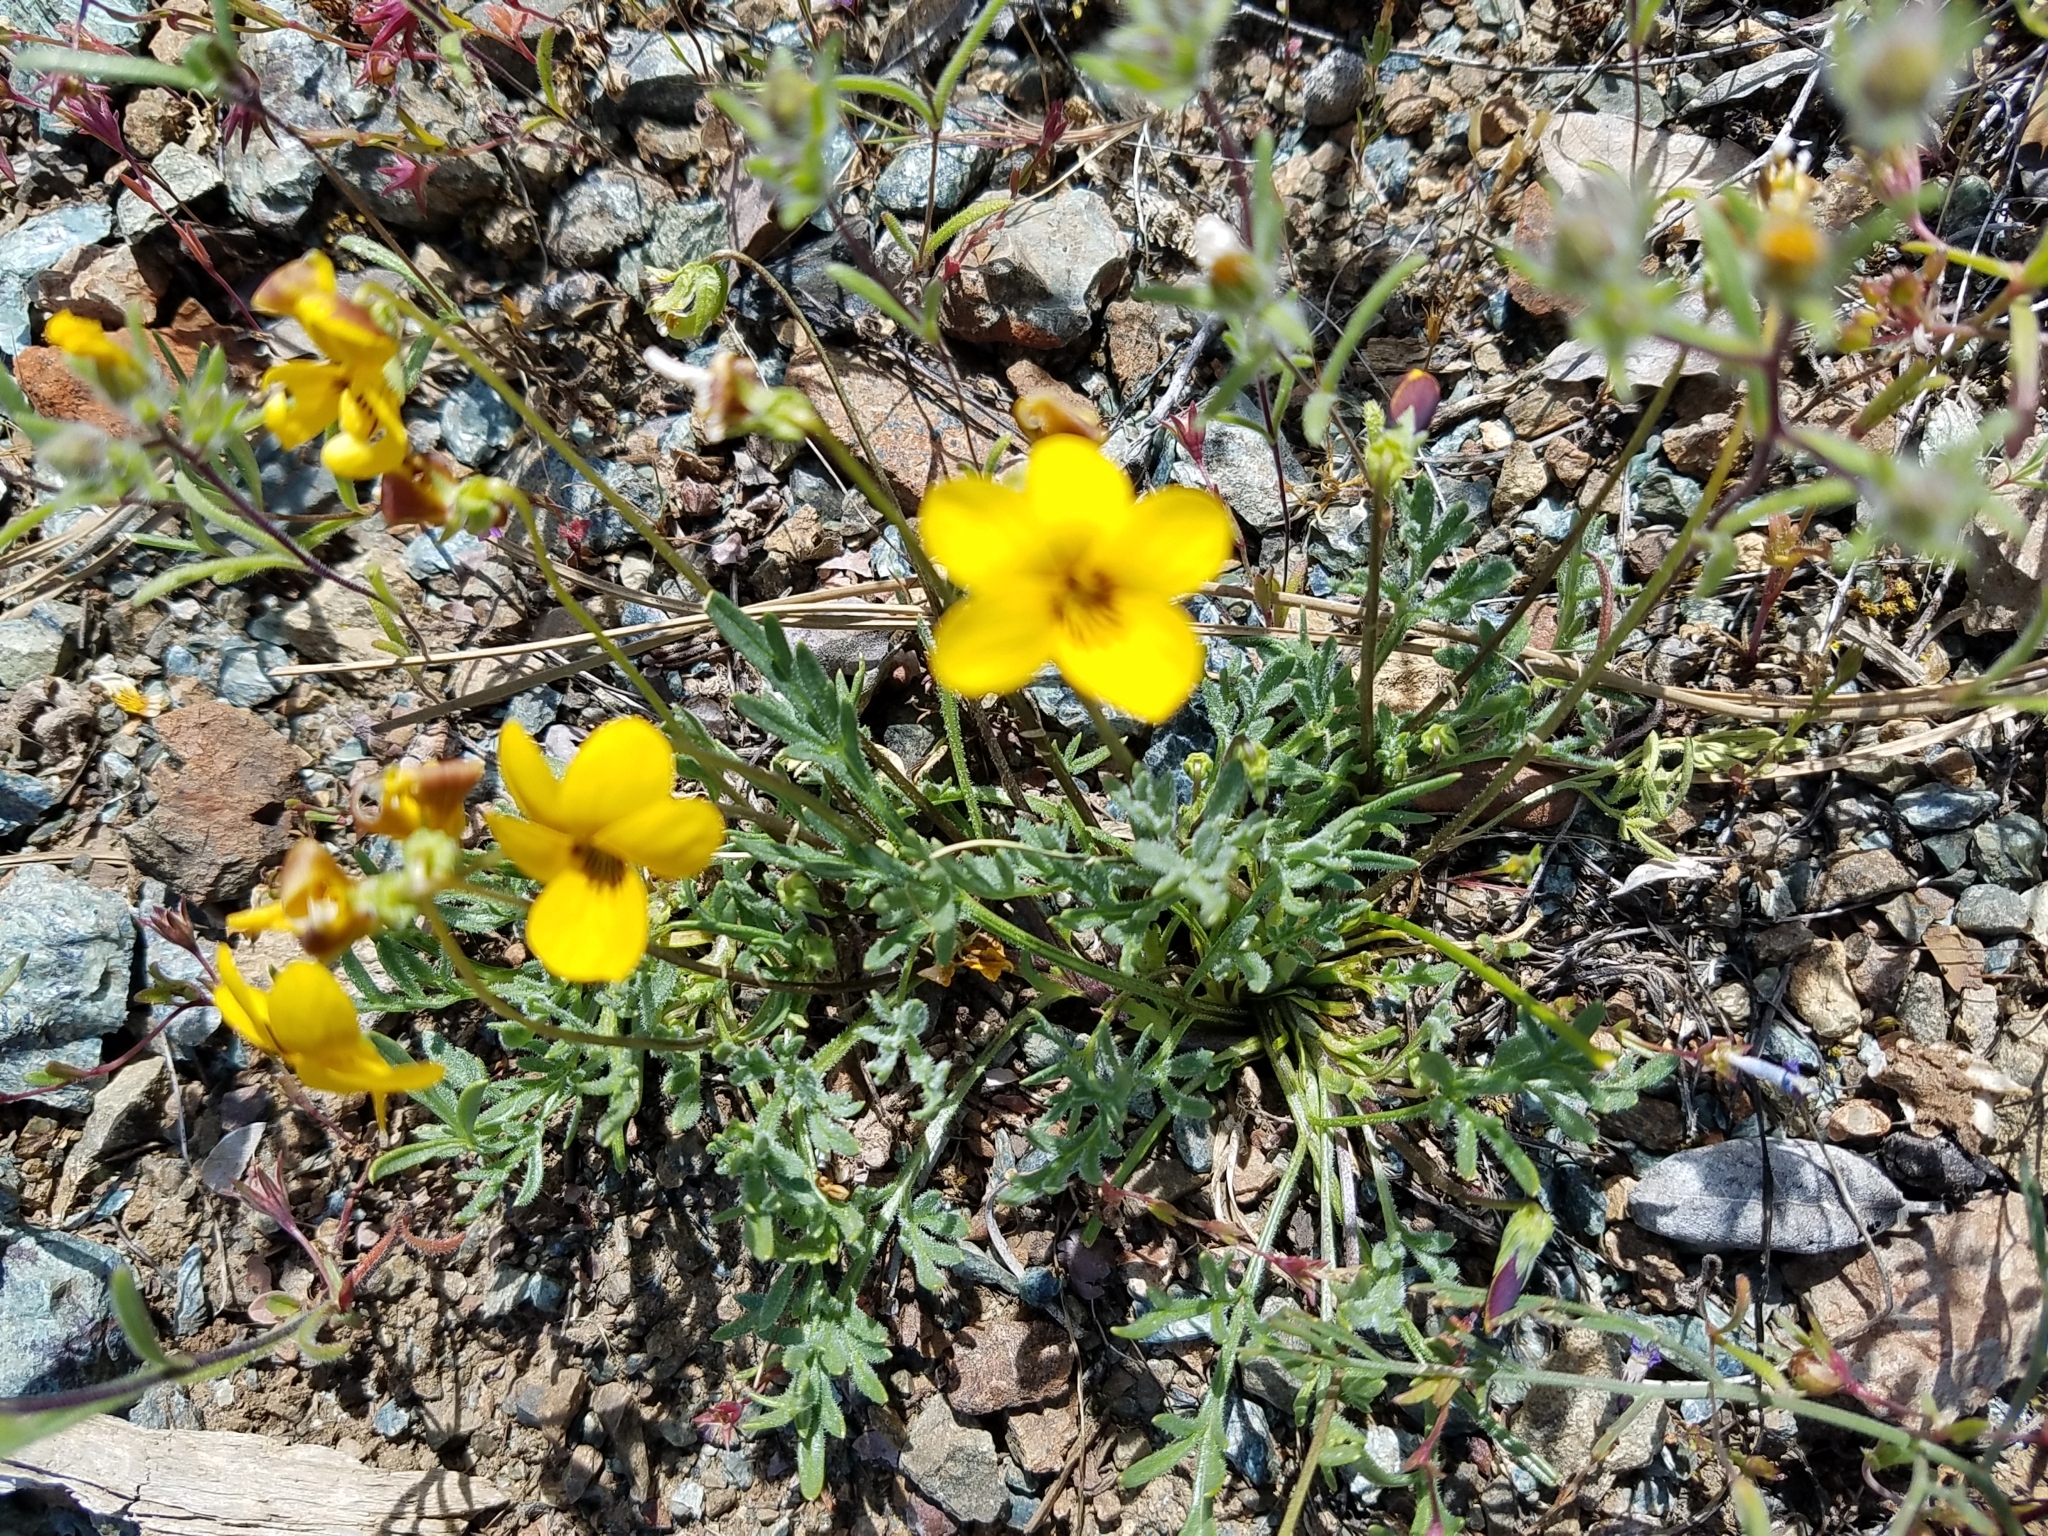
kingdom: Plantae
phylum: Tracheophyta
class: Magnoliopsida
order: Malpighiales
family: Violaceae
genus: Viola
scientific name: Viola douglasii
